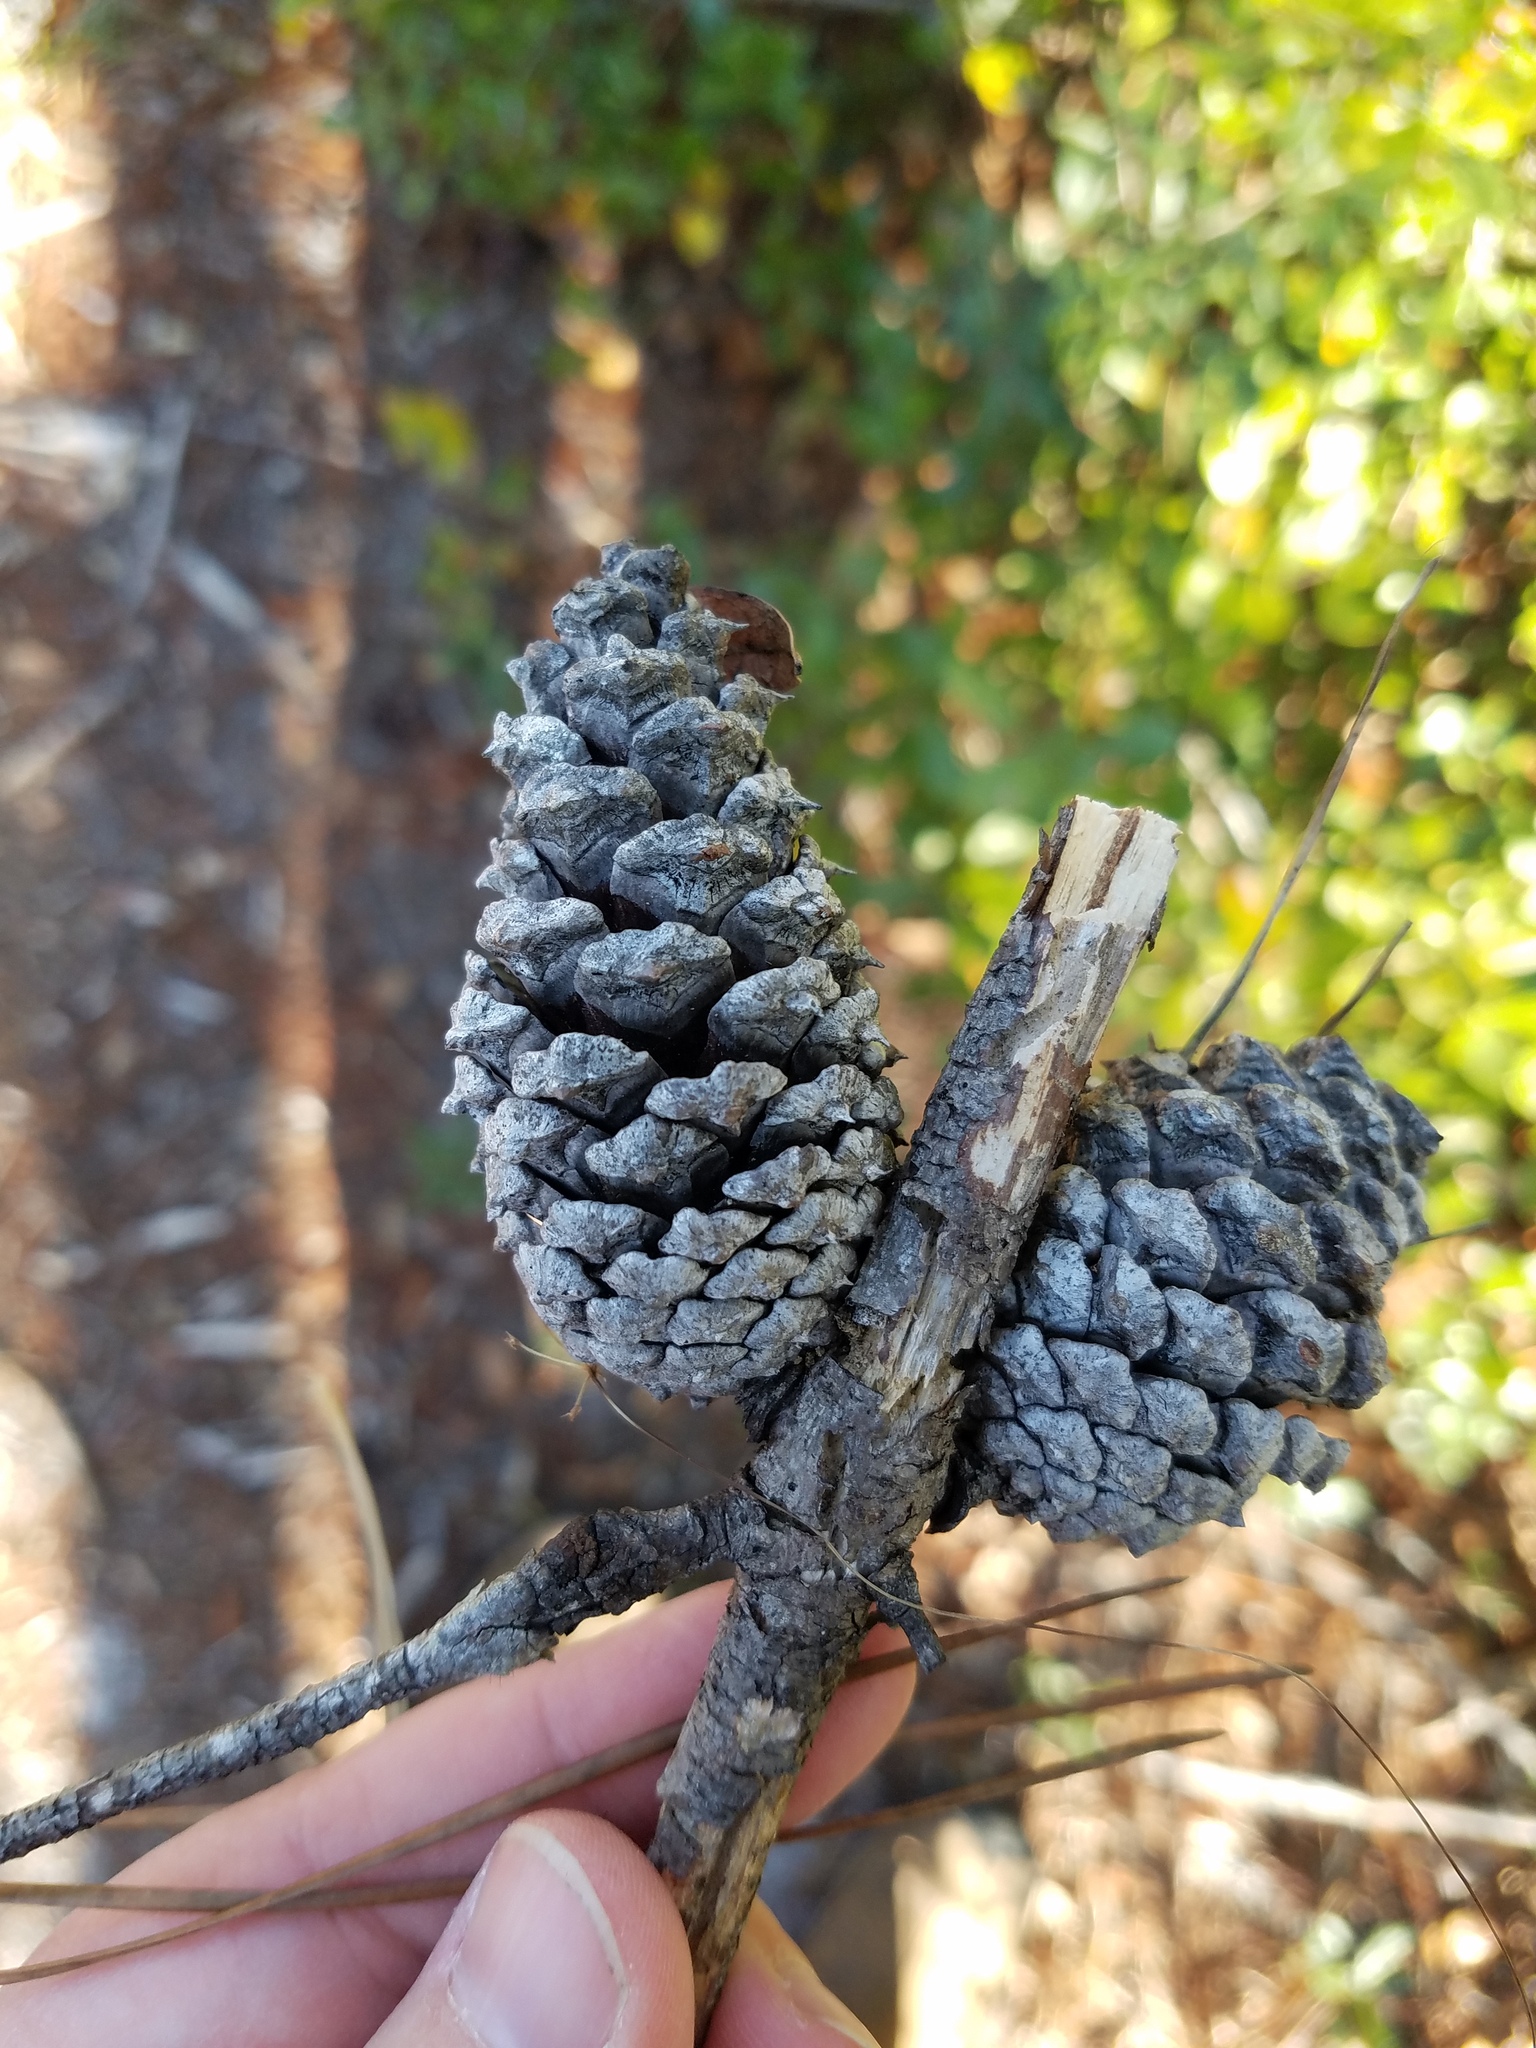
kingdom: Plantae
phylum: Tracheophyta
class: Pinopsida
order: Pinales
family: Pinaceae
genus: Pinus
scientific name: Pinus clausa
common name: Sand pine
